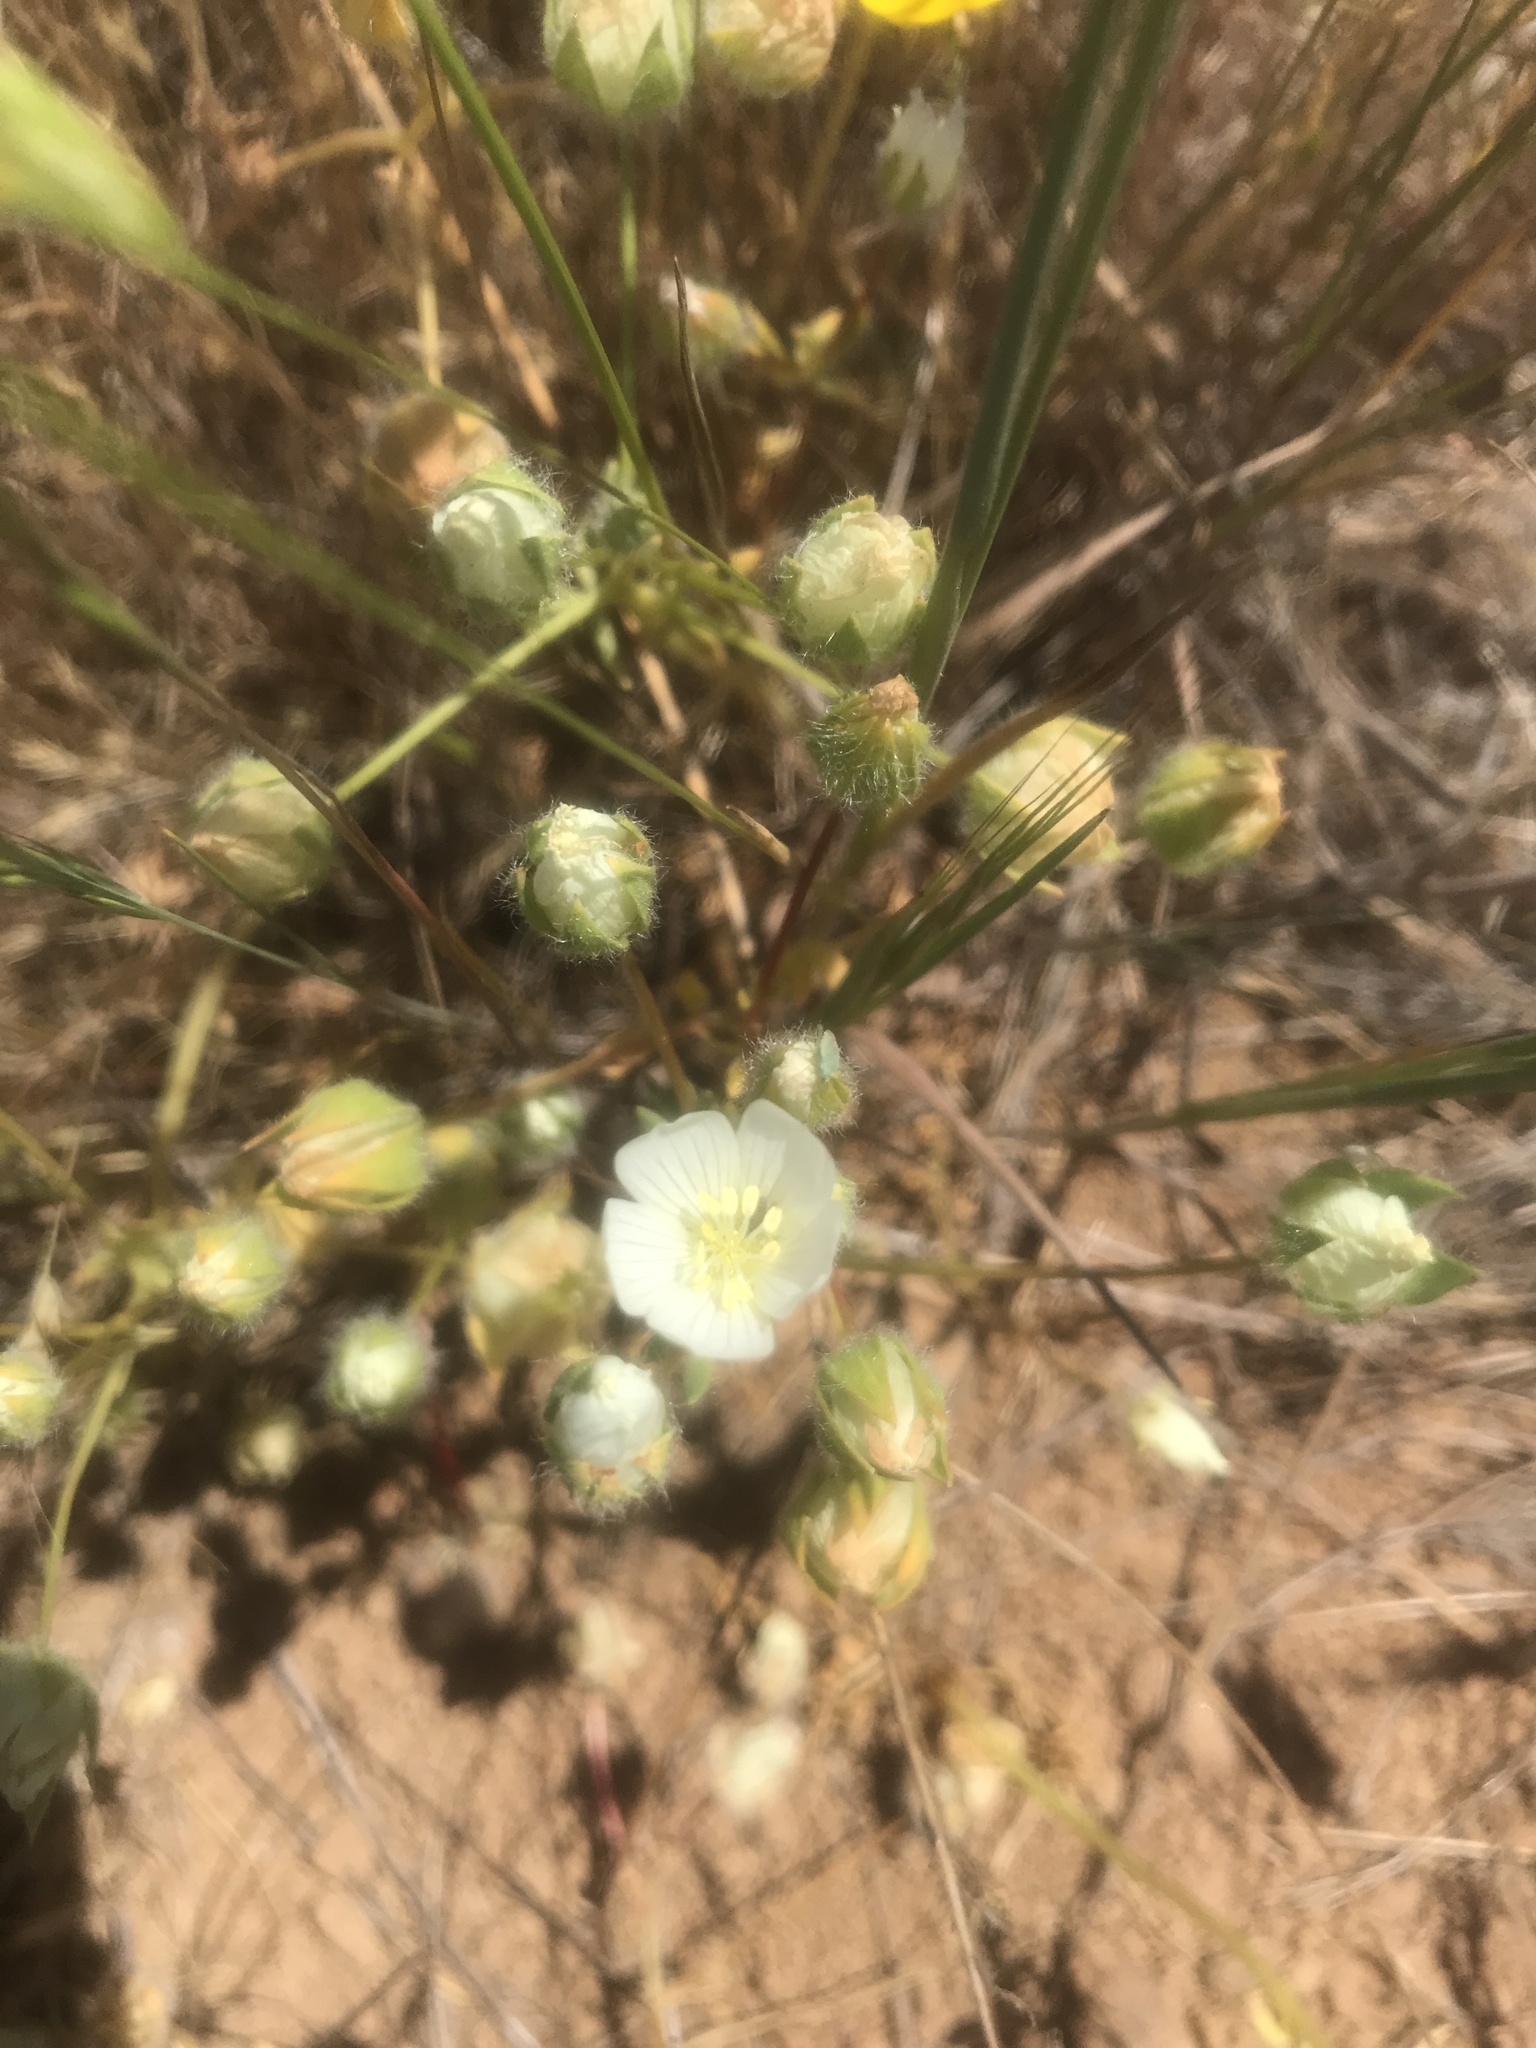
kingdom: Plantae
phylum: Tracheophyta
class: Magnoliopsida
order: Brassicales
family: Limnanthaceae
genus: Limnanthes
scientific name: Limnanthes alba
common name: Meadowfoam
